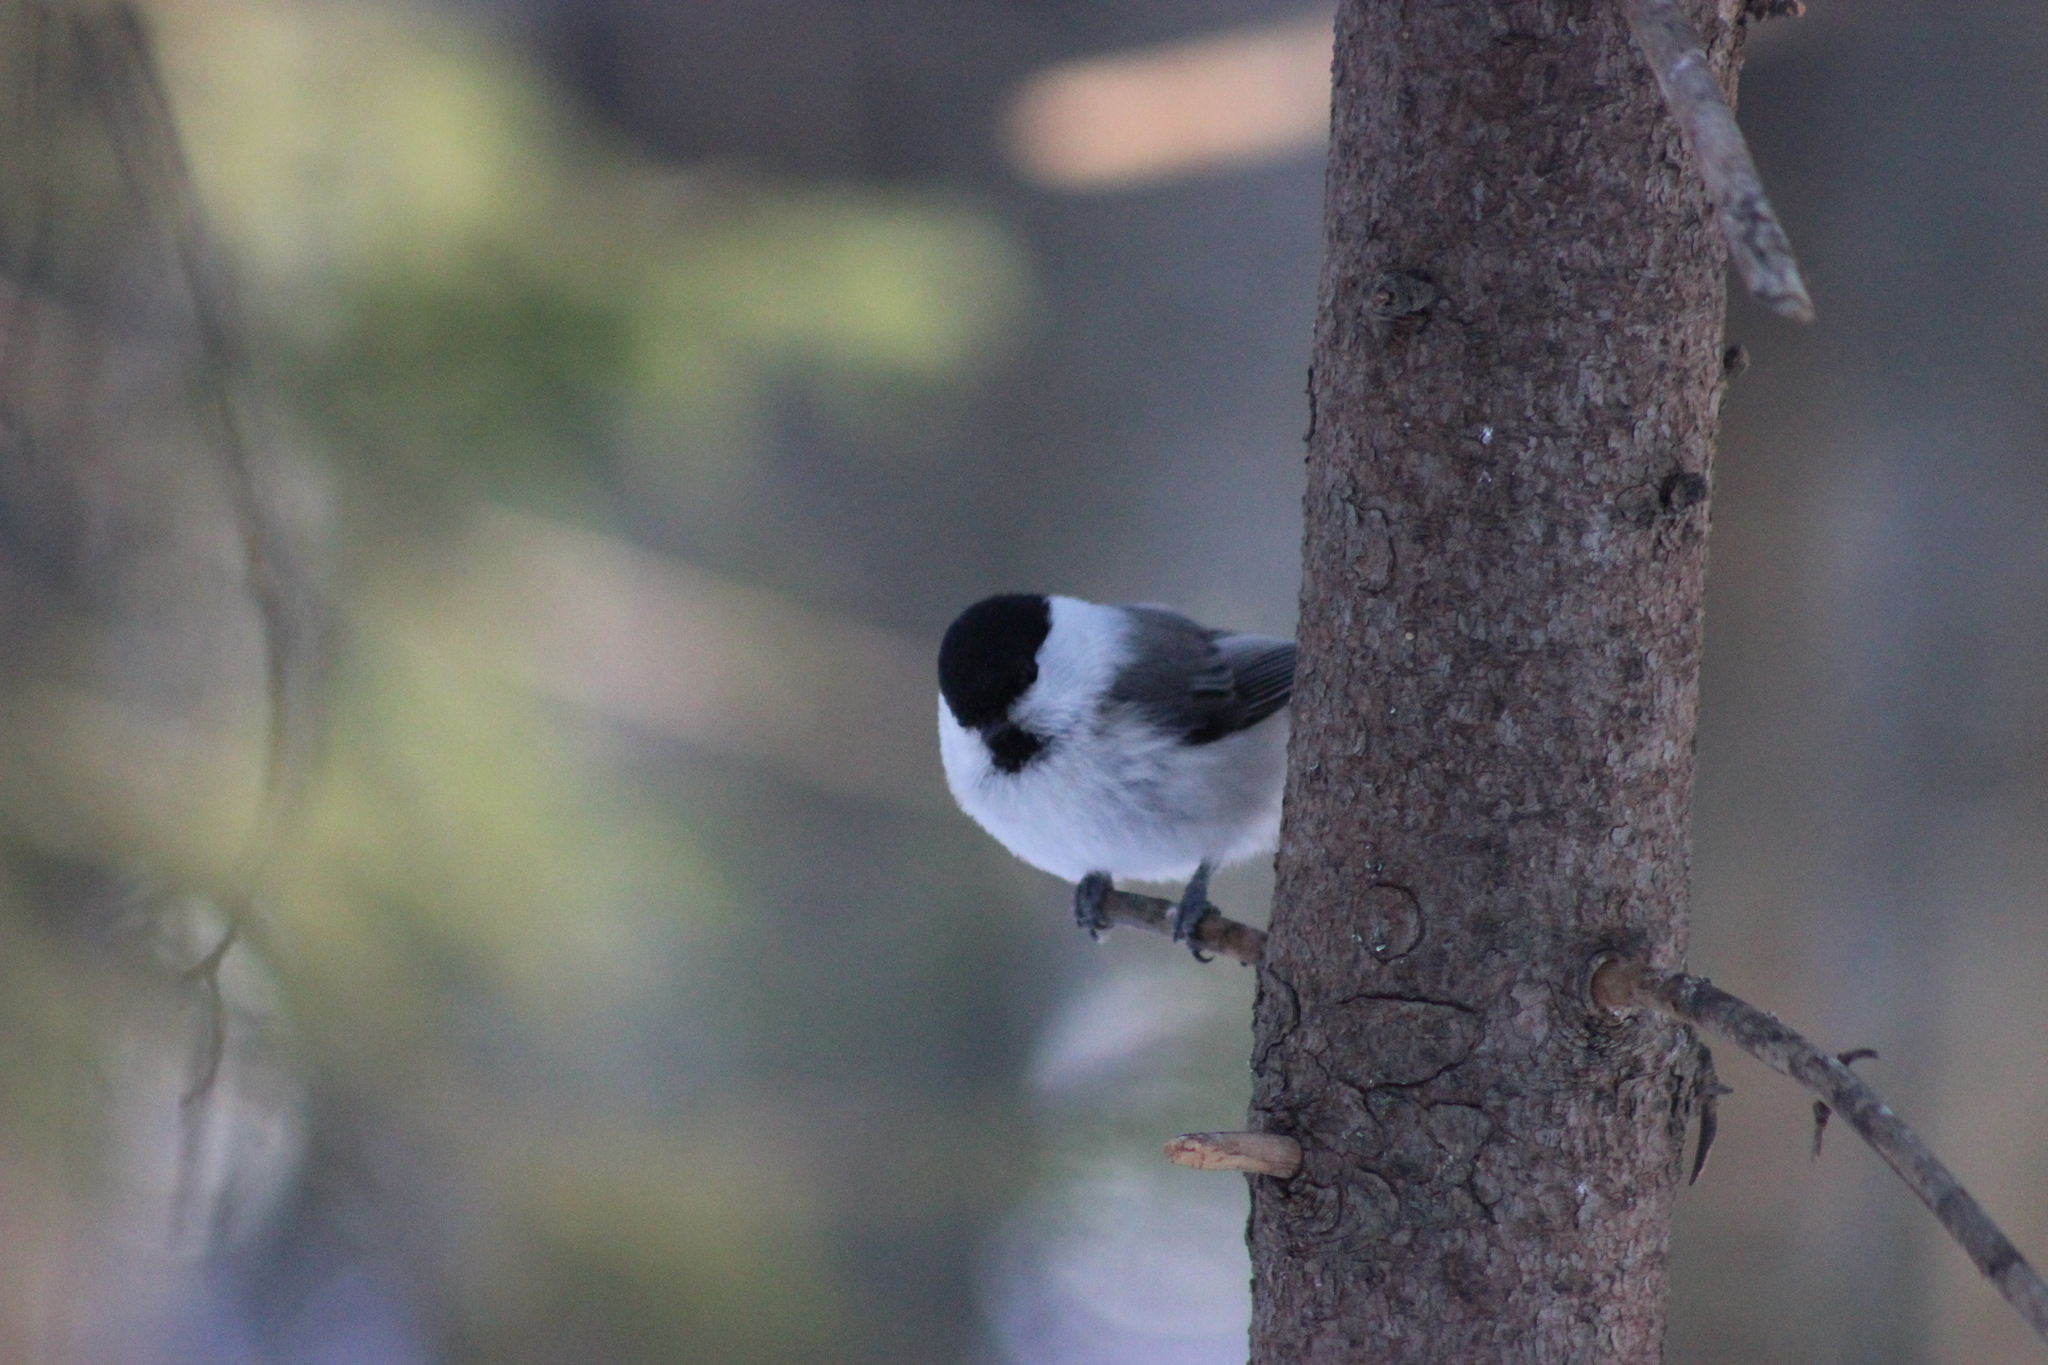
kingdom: Animalia
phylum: Chordata
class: Aves
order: Passeriformes
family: Paridae
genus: Poecile
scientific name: Poecile montanus
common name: Willow tit
